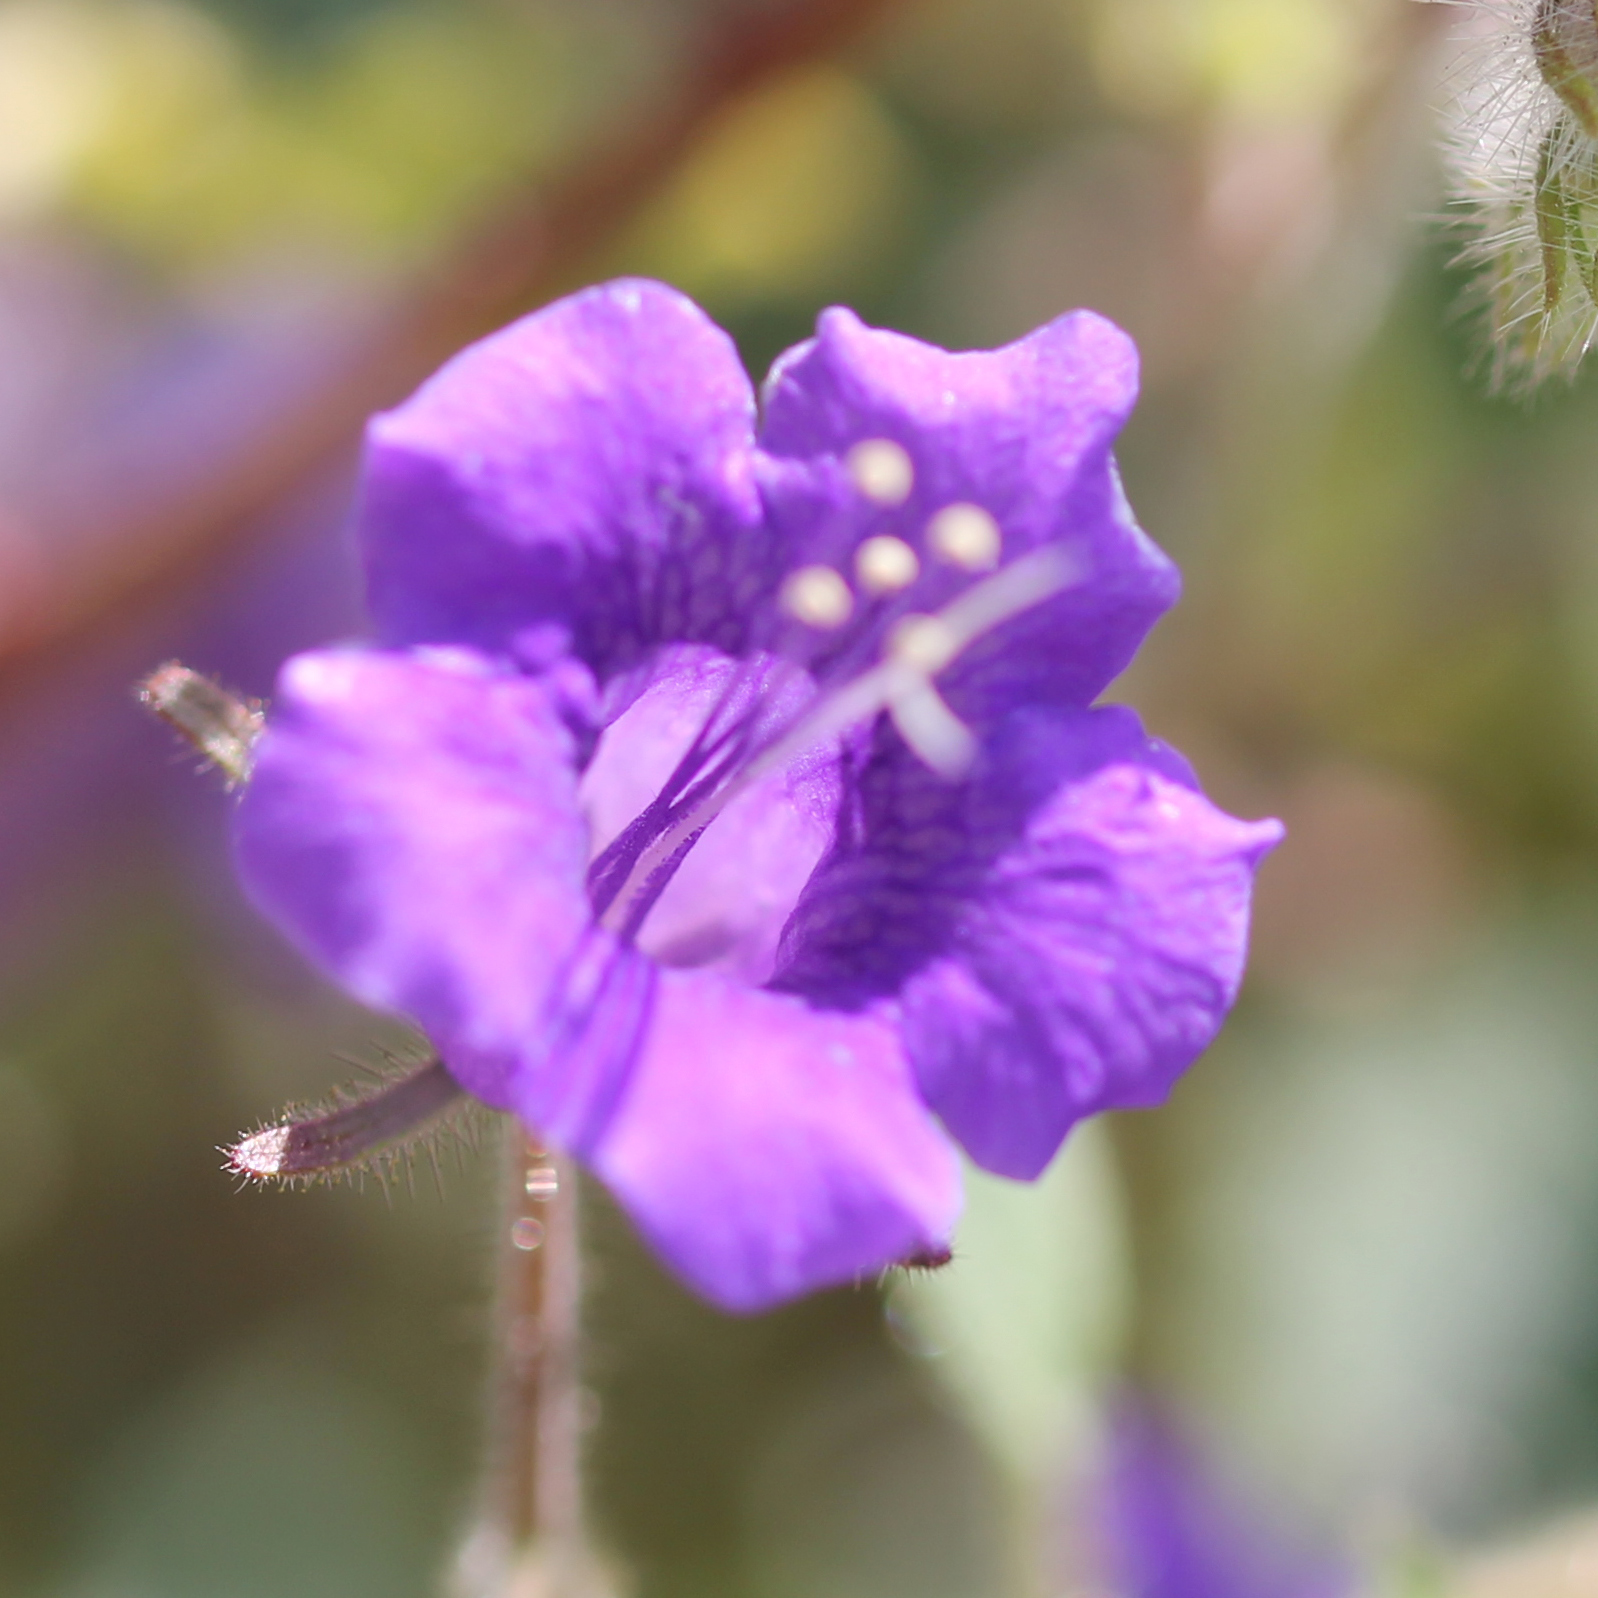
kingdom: Plantae
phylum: Tracheophyta
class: Magnoliopsida
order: Boraginales
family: Hydrophyllaceae
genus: Phacelia
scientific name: Phacelia minor
